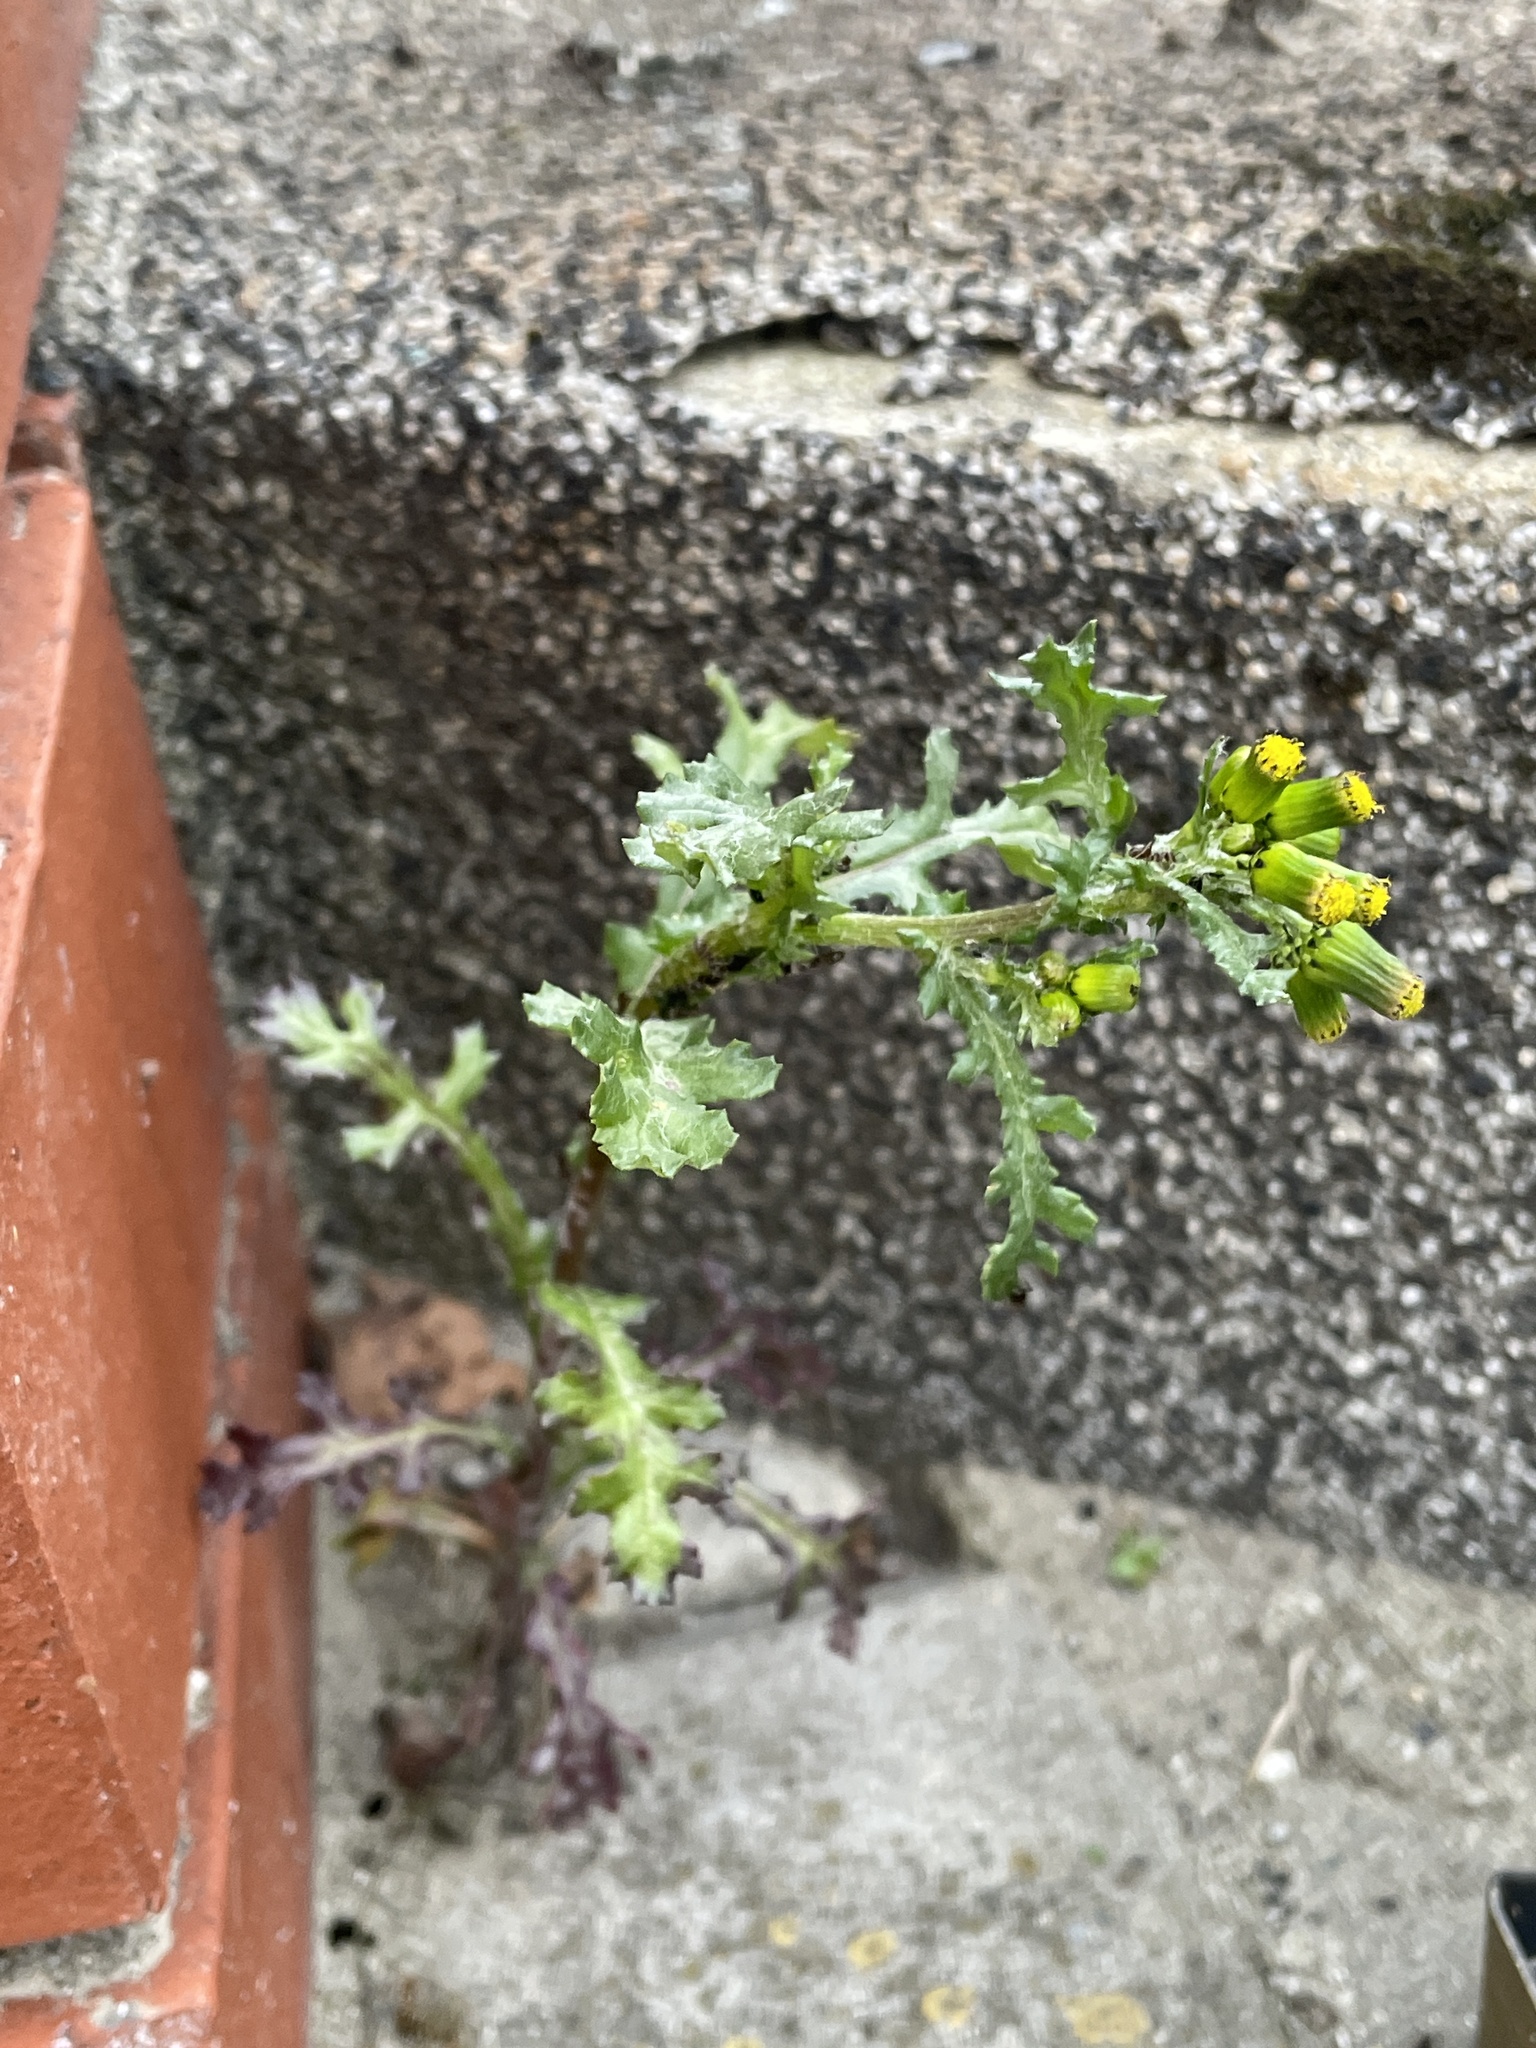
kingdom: Plantae
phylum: Tracheophyta
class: Magnoliopsida
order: Asterales
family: Asteraceae
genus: Senecio
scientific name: Senecio vulgaris
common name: Old-man-in-the-spring
